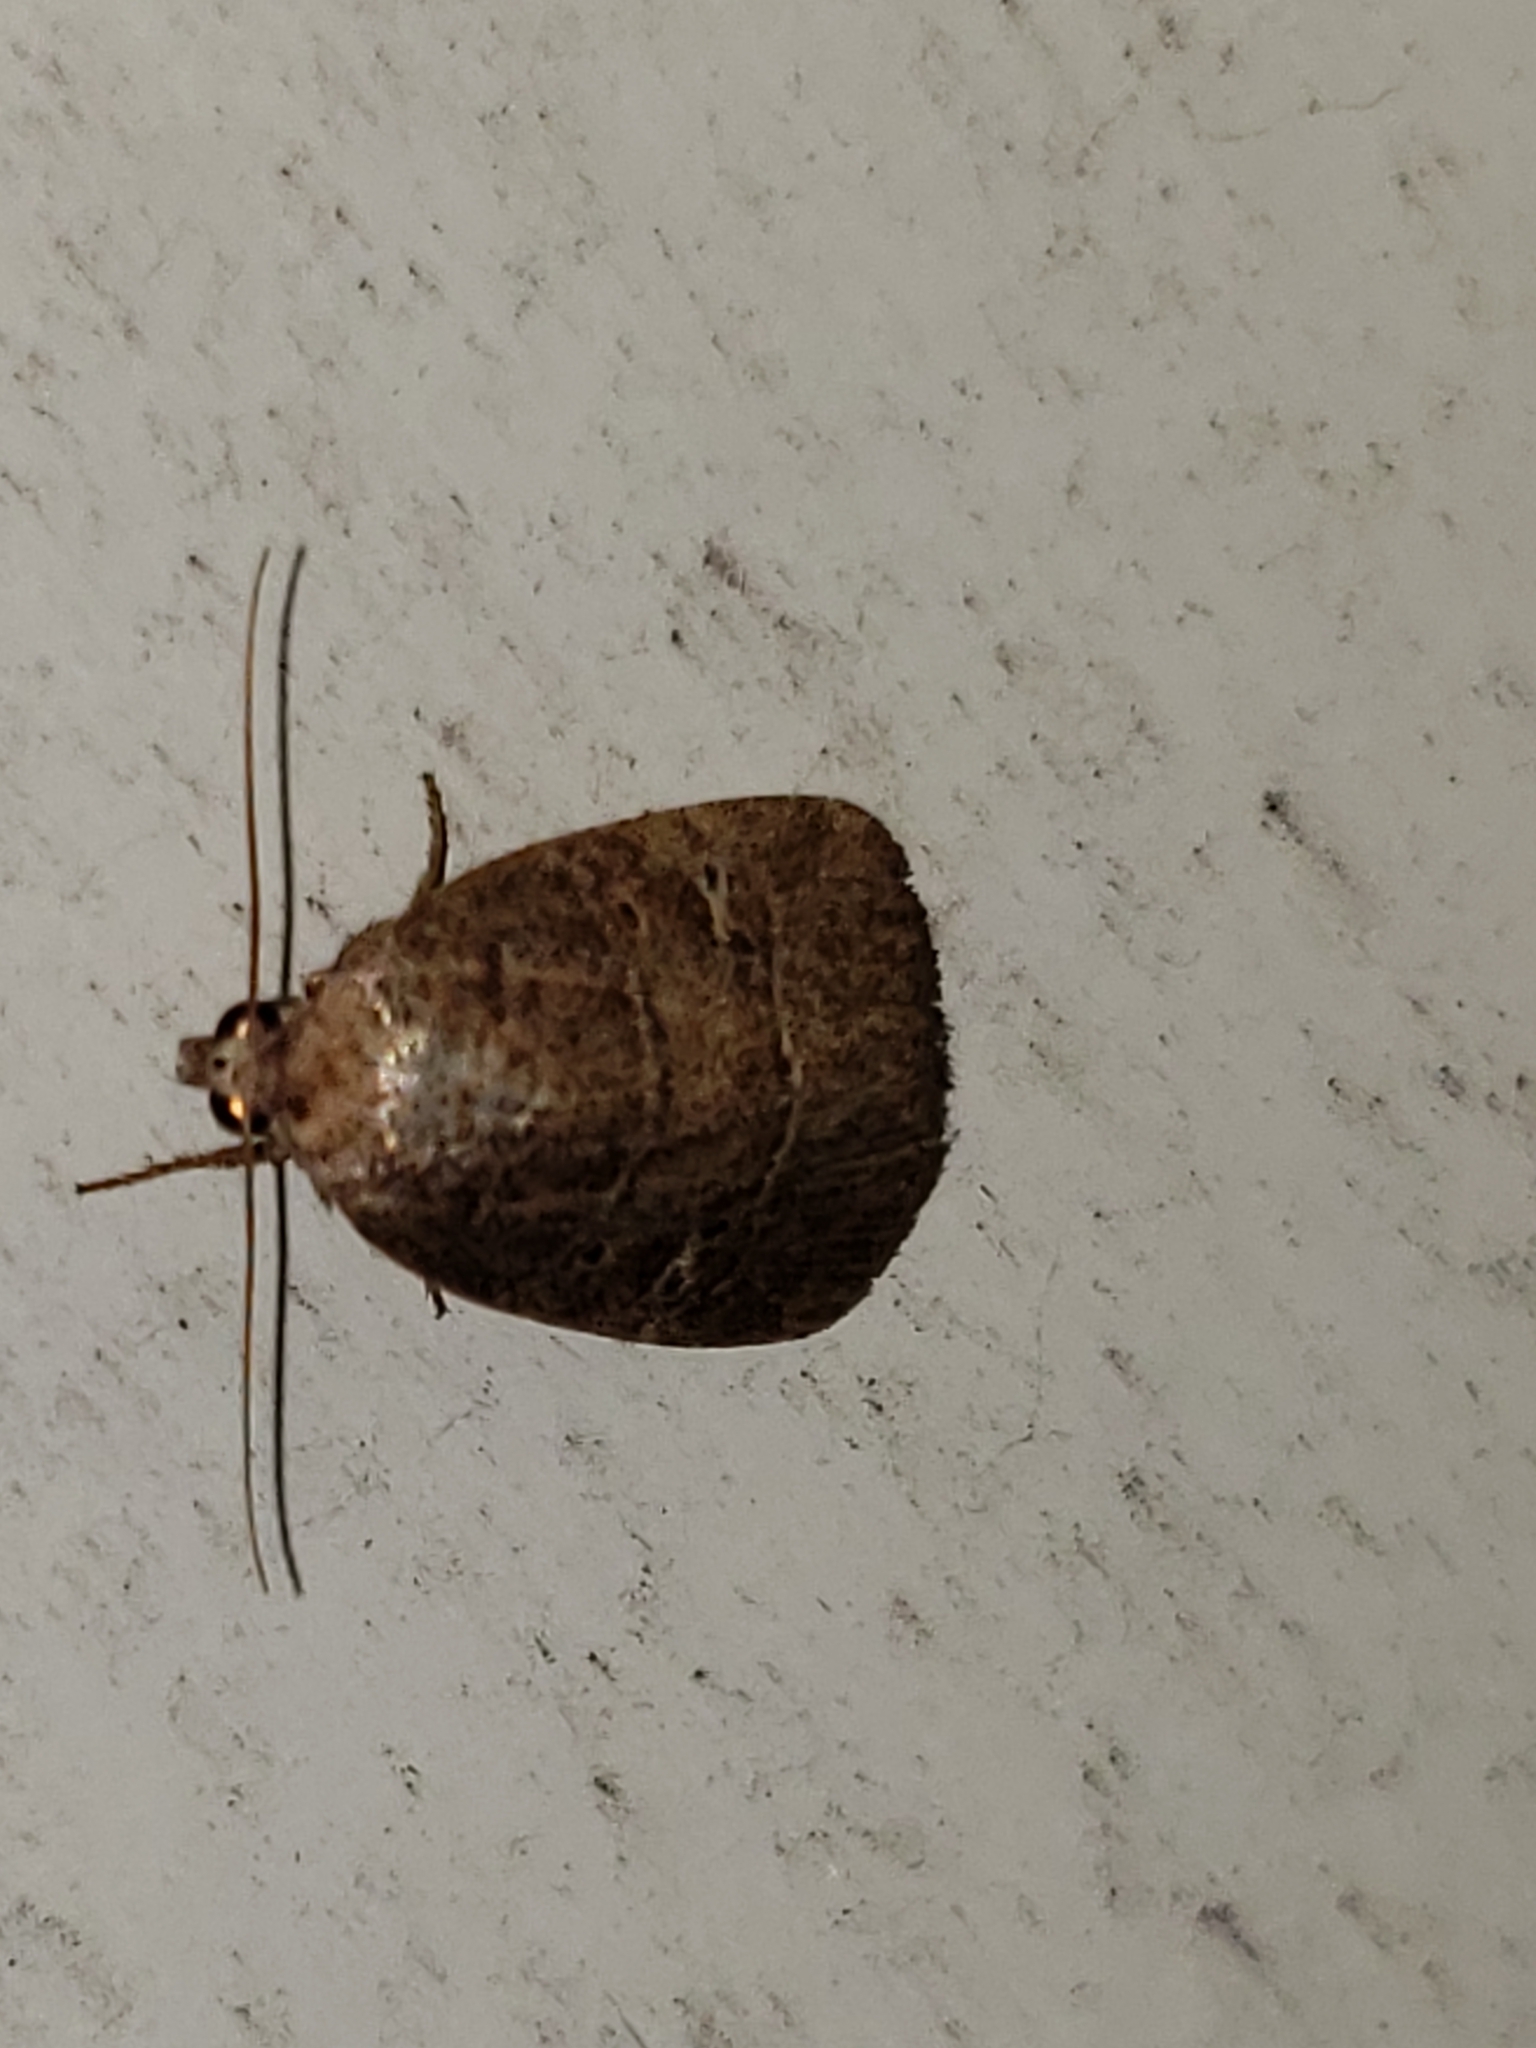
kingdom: Animalia
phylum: Arthropoda
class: Insecta
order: Lepidoptera
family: Noctuidae
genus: Elaphria
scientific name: Elaphria grata
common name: Grateful midget moth
